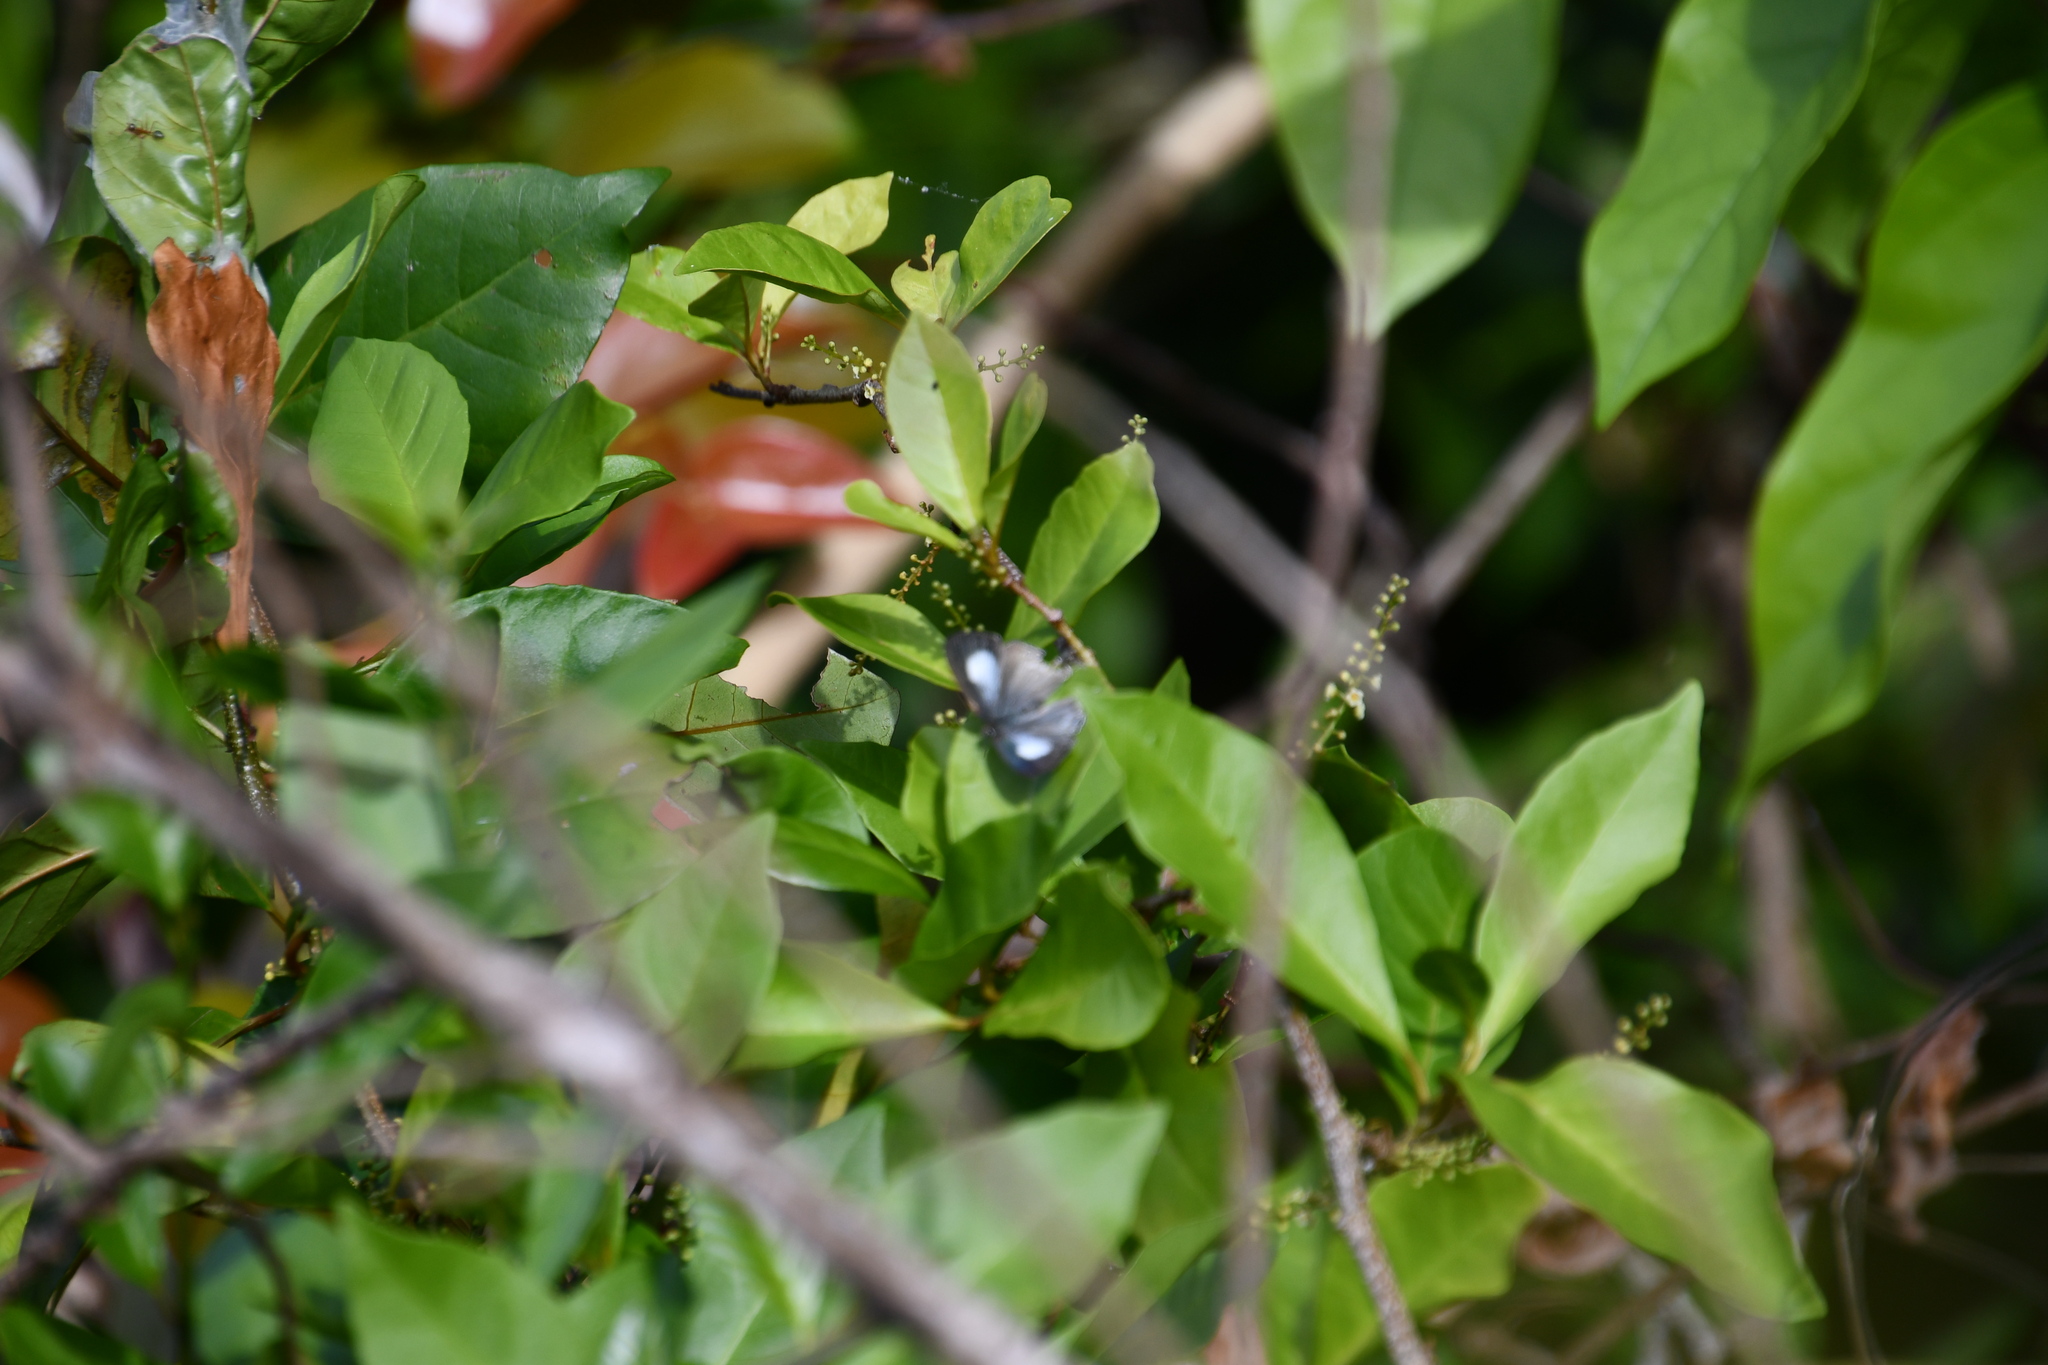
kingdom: Animalia
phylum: Arthropoda
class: Insecta
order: Lepidoptera
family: Lycaenidae
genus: Hypolycaena
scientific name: Hypolycaena phorbas
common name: Black-spotted flash
